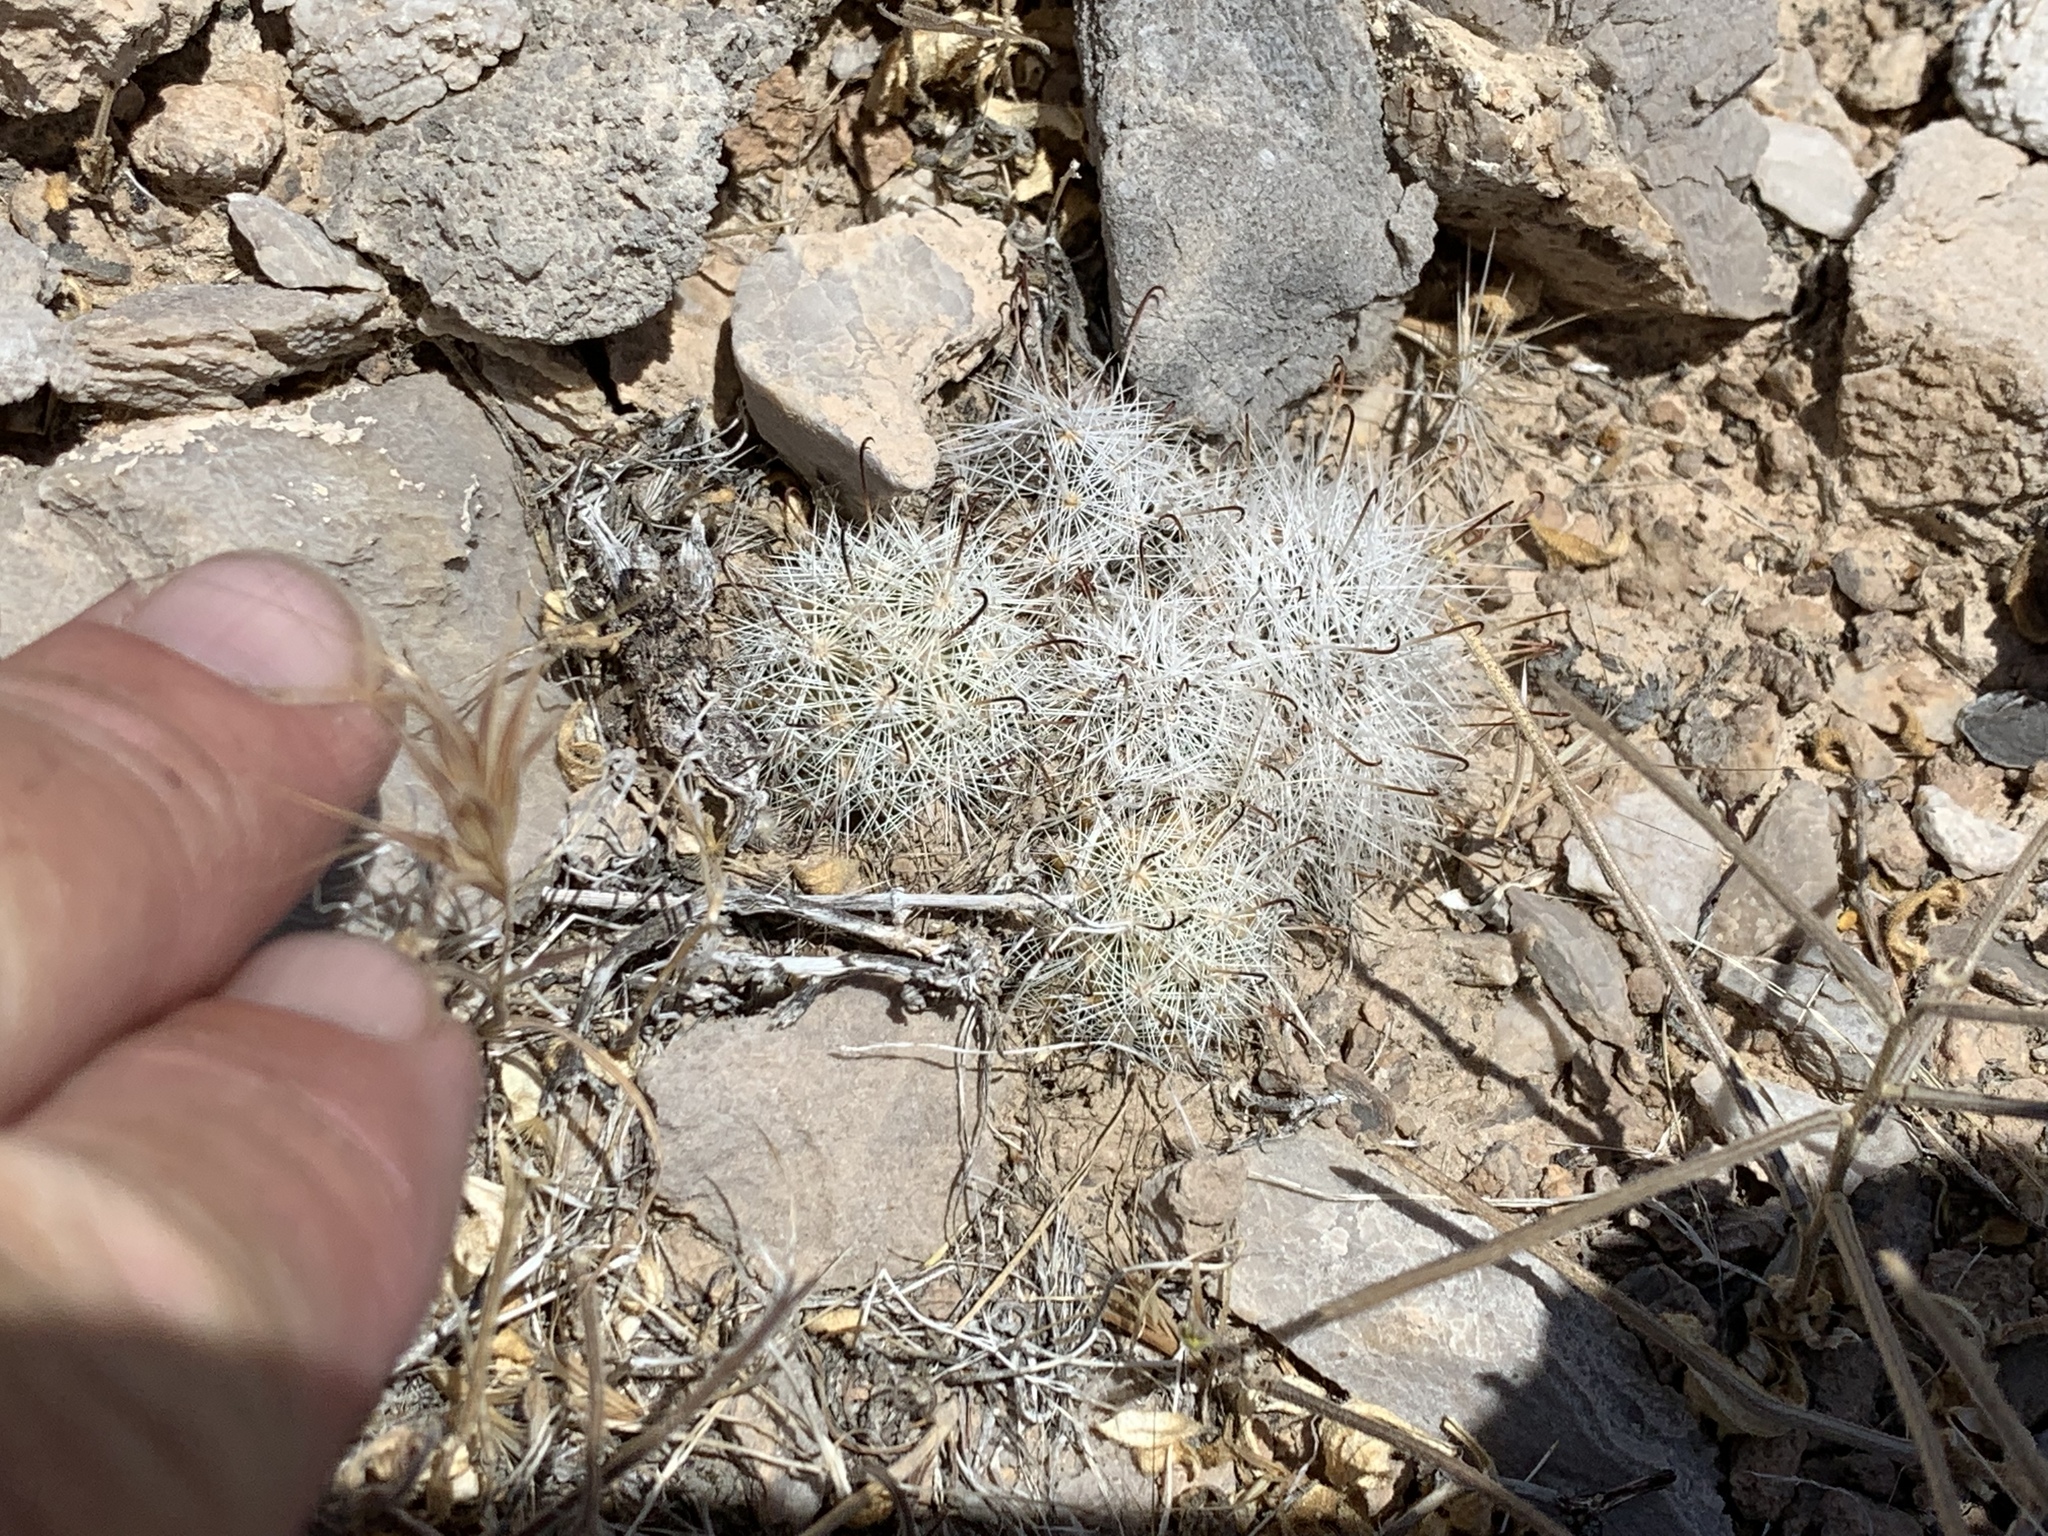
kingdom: Plantae
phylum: Tracheophyta
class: Magnoliopsida
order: Caryophyllales
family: Cactaceae
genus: Cochemiea
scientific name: Cochemiea tetrancistra
